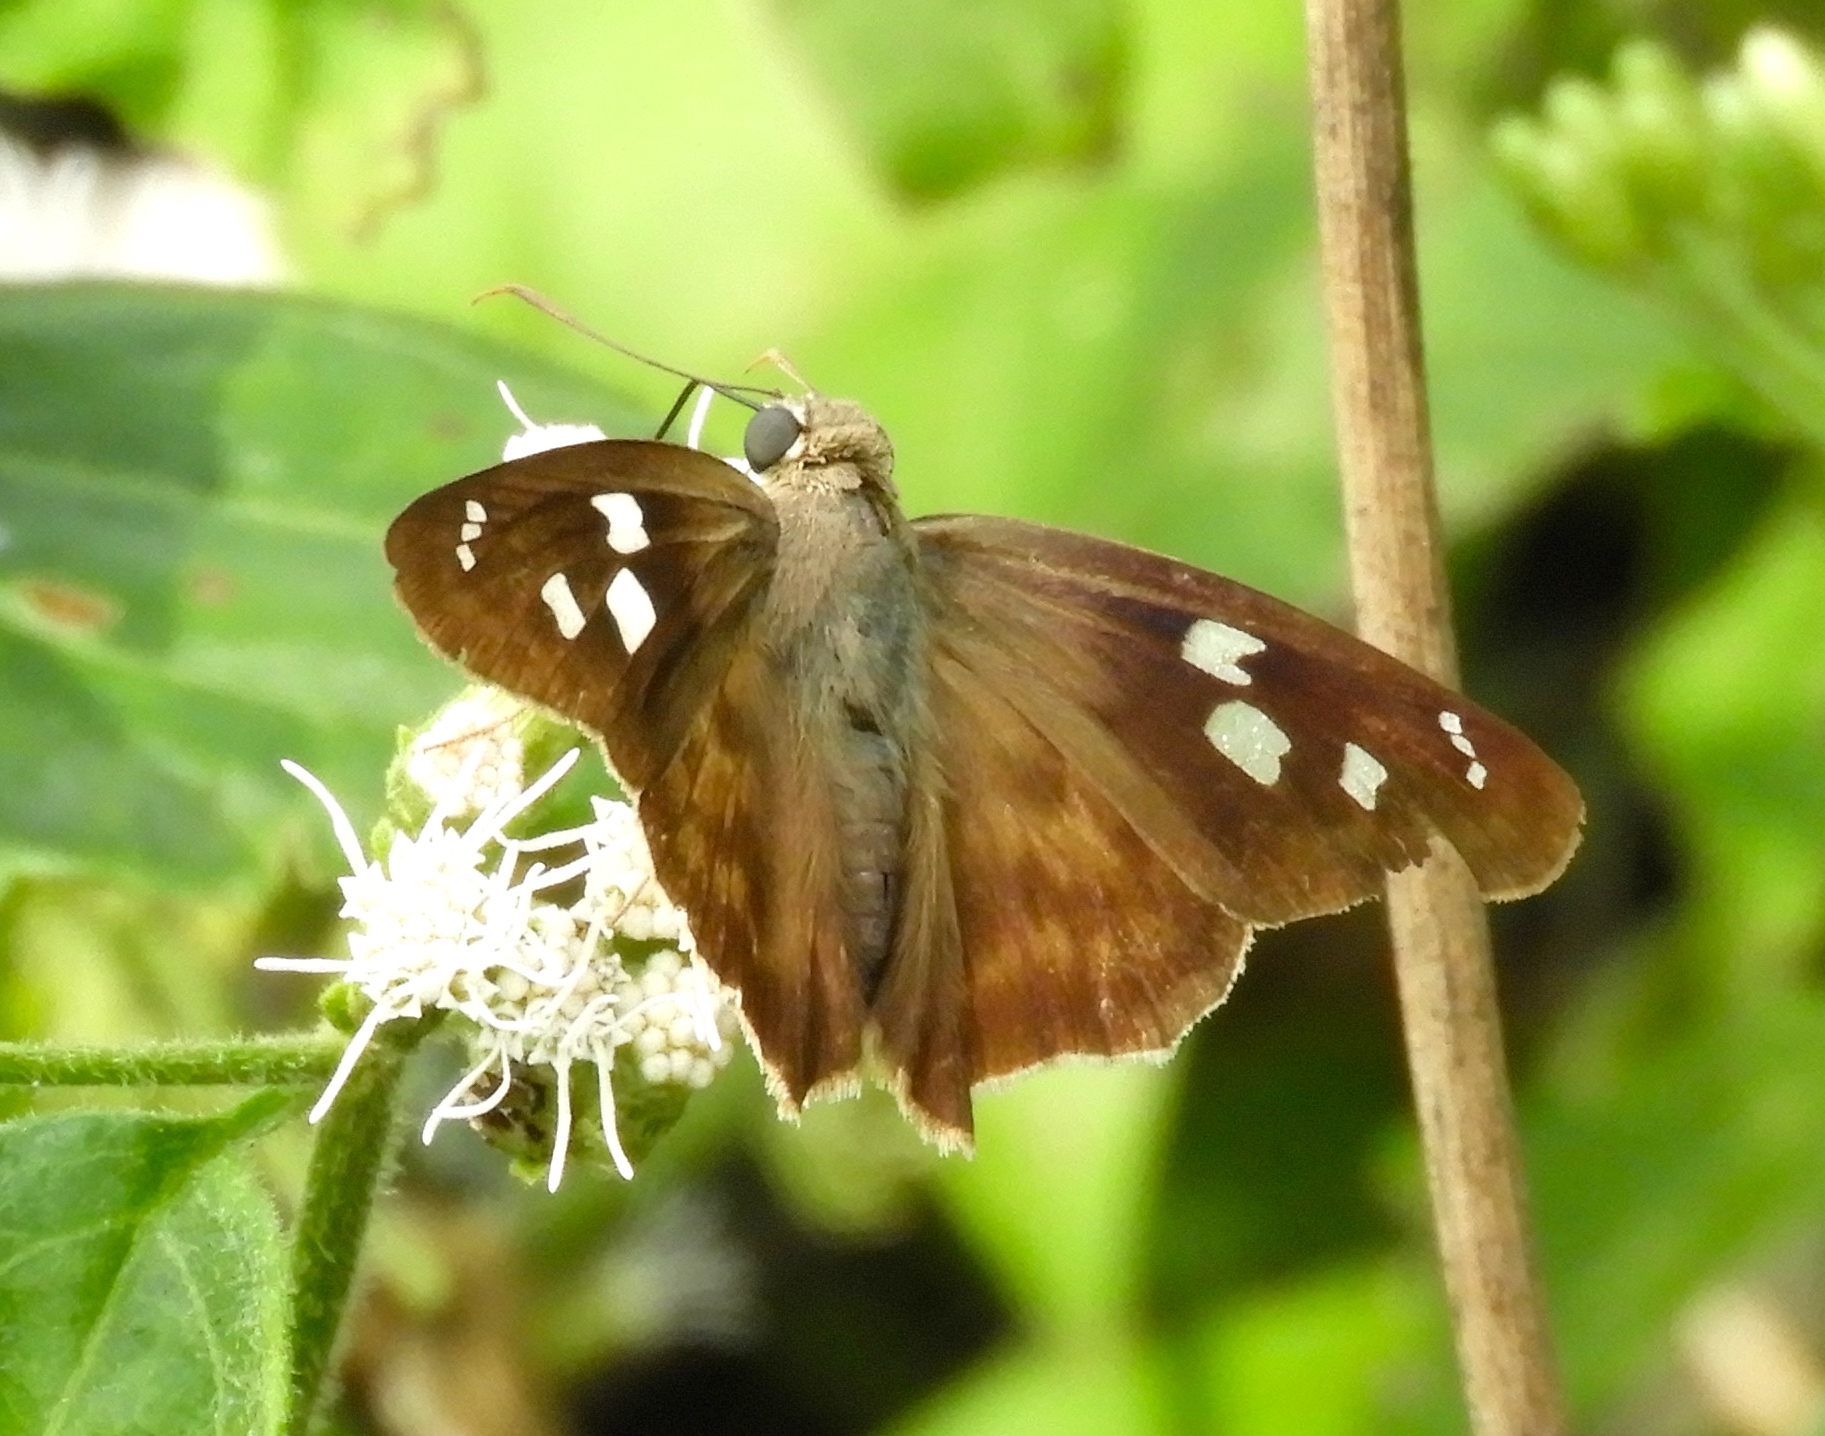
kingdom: Animalia
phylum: Arthropoda
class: Insecta
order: Lepidoptera
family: Hesperiidae
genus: Polygonus
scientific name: Polygonus leo
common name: Hammoch skipper
